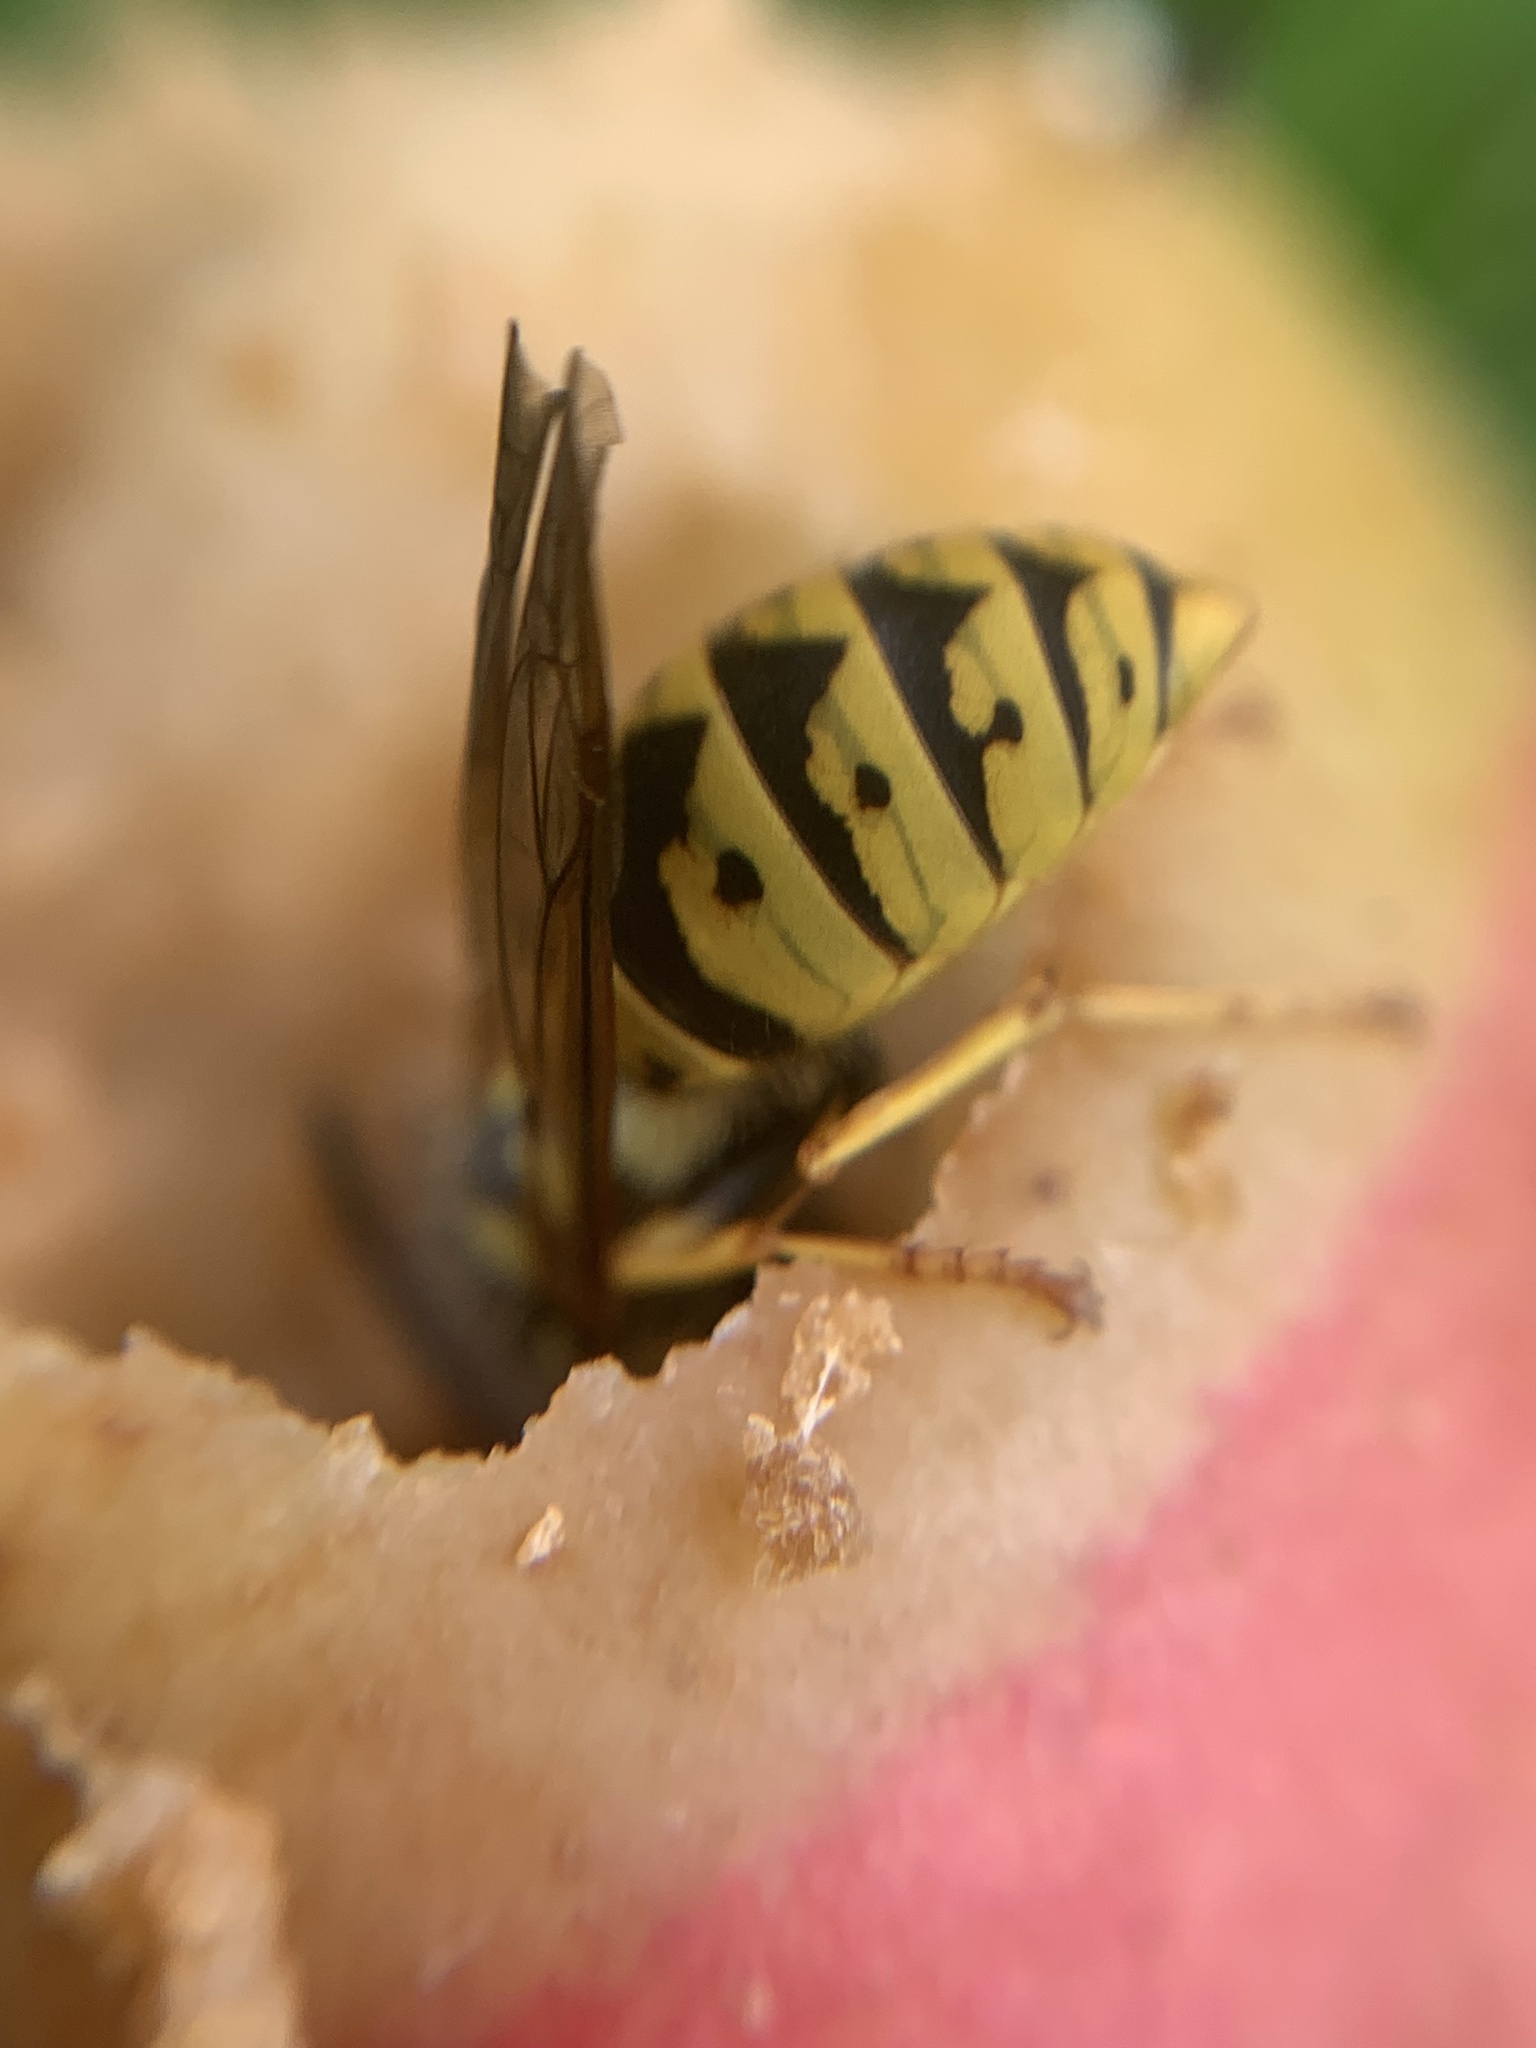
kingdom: Animalia
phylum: Arthropoda
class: Insecta
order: Hymenoptera
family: Vespidae
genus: Vespula
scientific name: Vespula germanica
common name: German wasp
